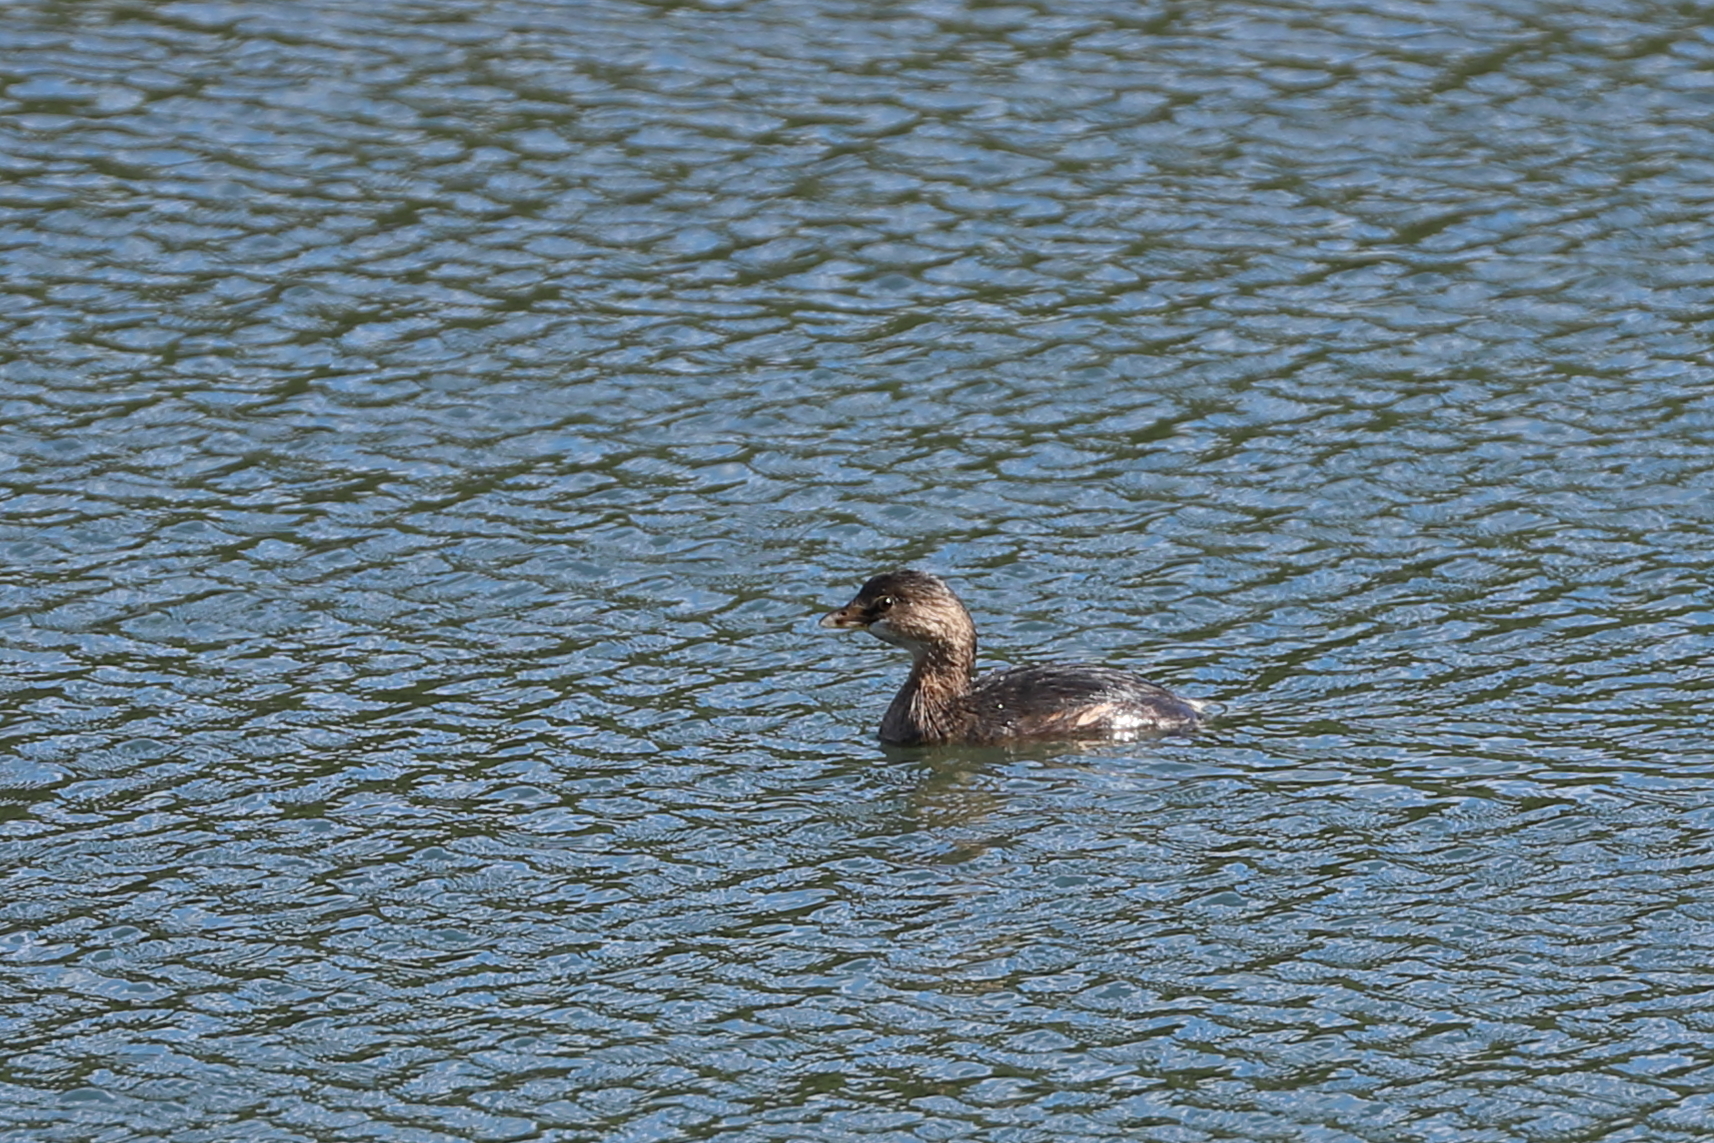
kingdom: Animalia
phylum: Chordata
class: Aves
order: Podicipediformes
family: Podicipedidae
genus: Podilymbus
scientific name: Podilymbus podiceps
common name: Pied-billed grebe
